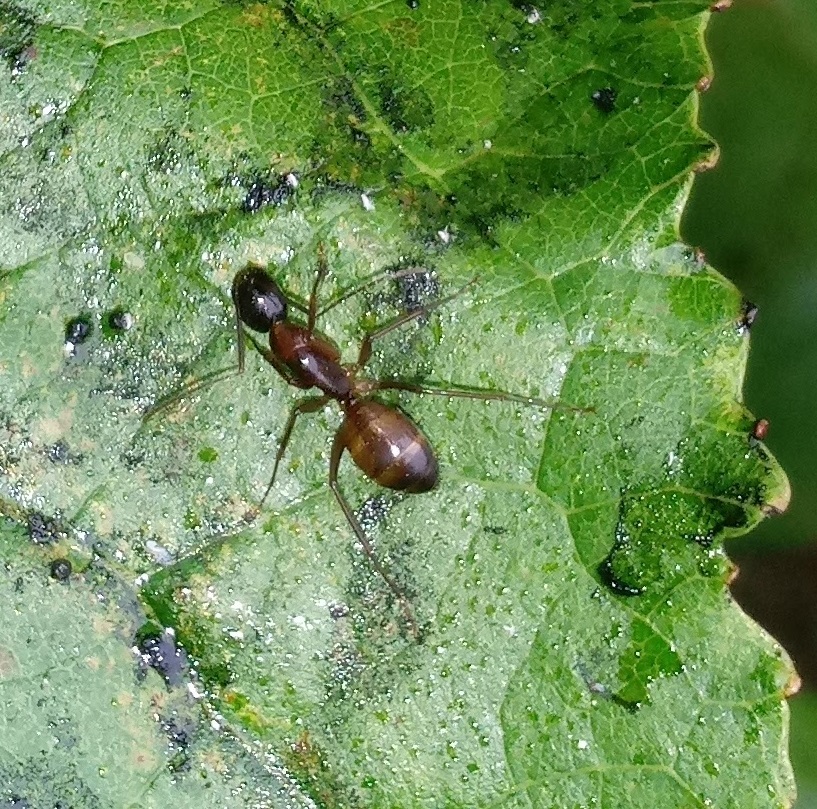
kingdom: Animalia
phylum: Arthropoda
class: Insecta
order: Hymenoptera
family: Formicidae
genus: Camponotus
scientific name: Camponotus americanus
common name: American carpenter ant
